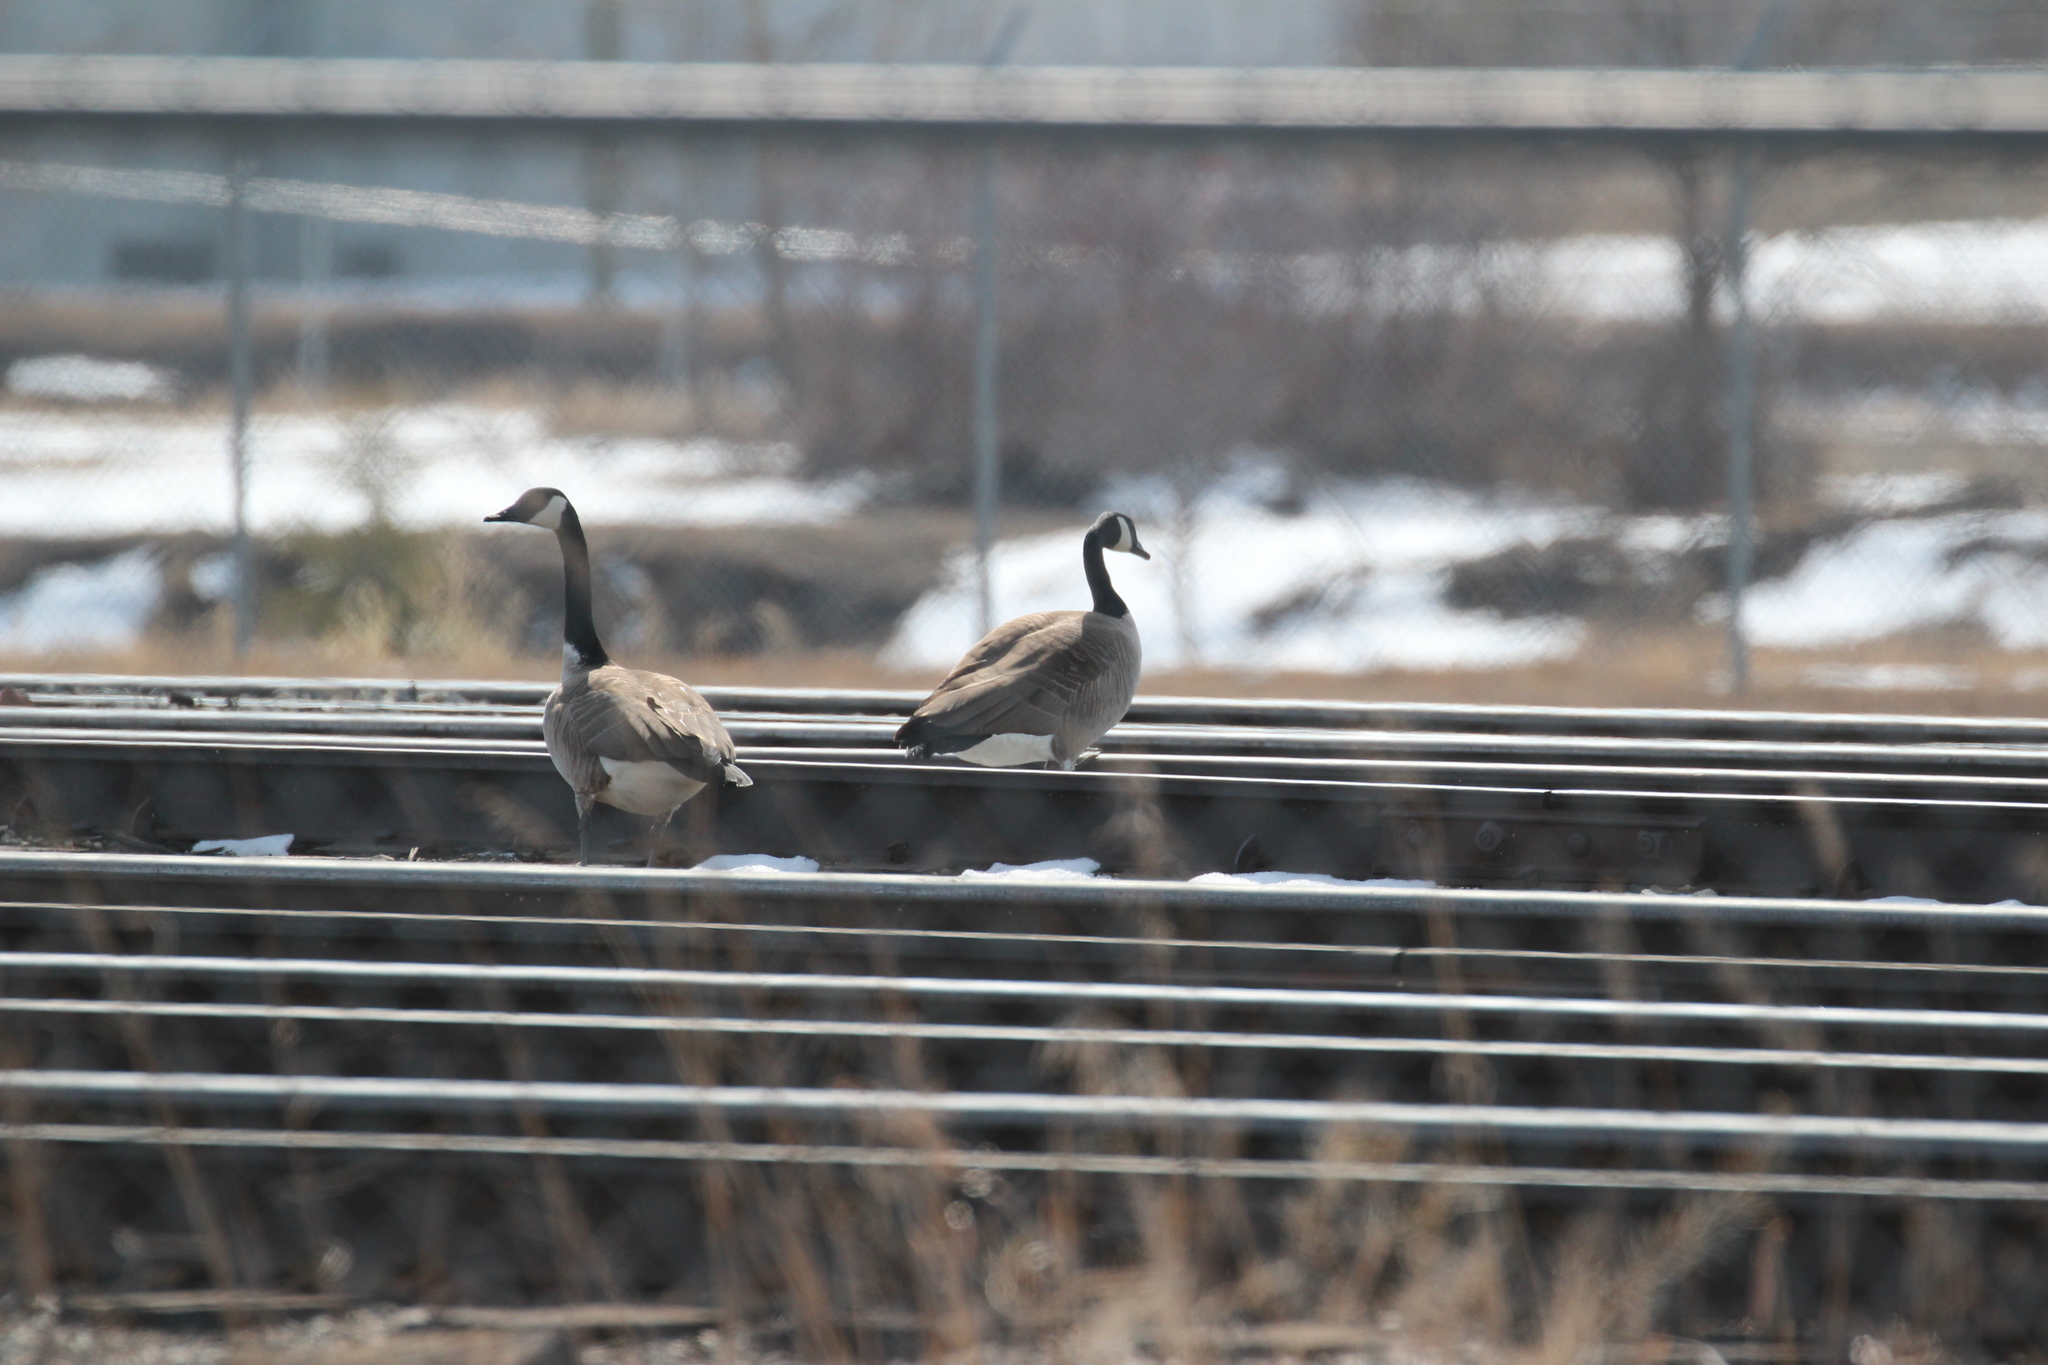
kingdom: Animalia
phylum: Chordata
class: Aves
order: Anseriformes
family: Anatidae
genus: Branta
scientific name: Branta canadensis
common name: Canada goose
